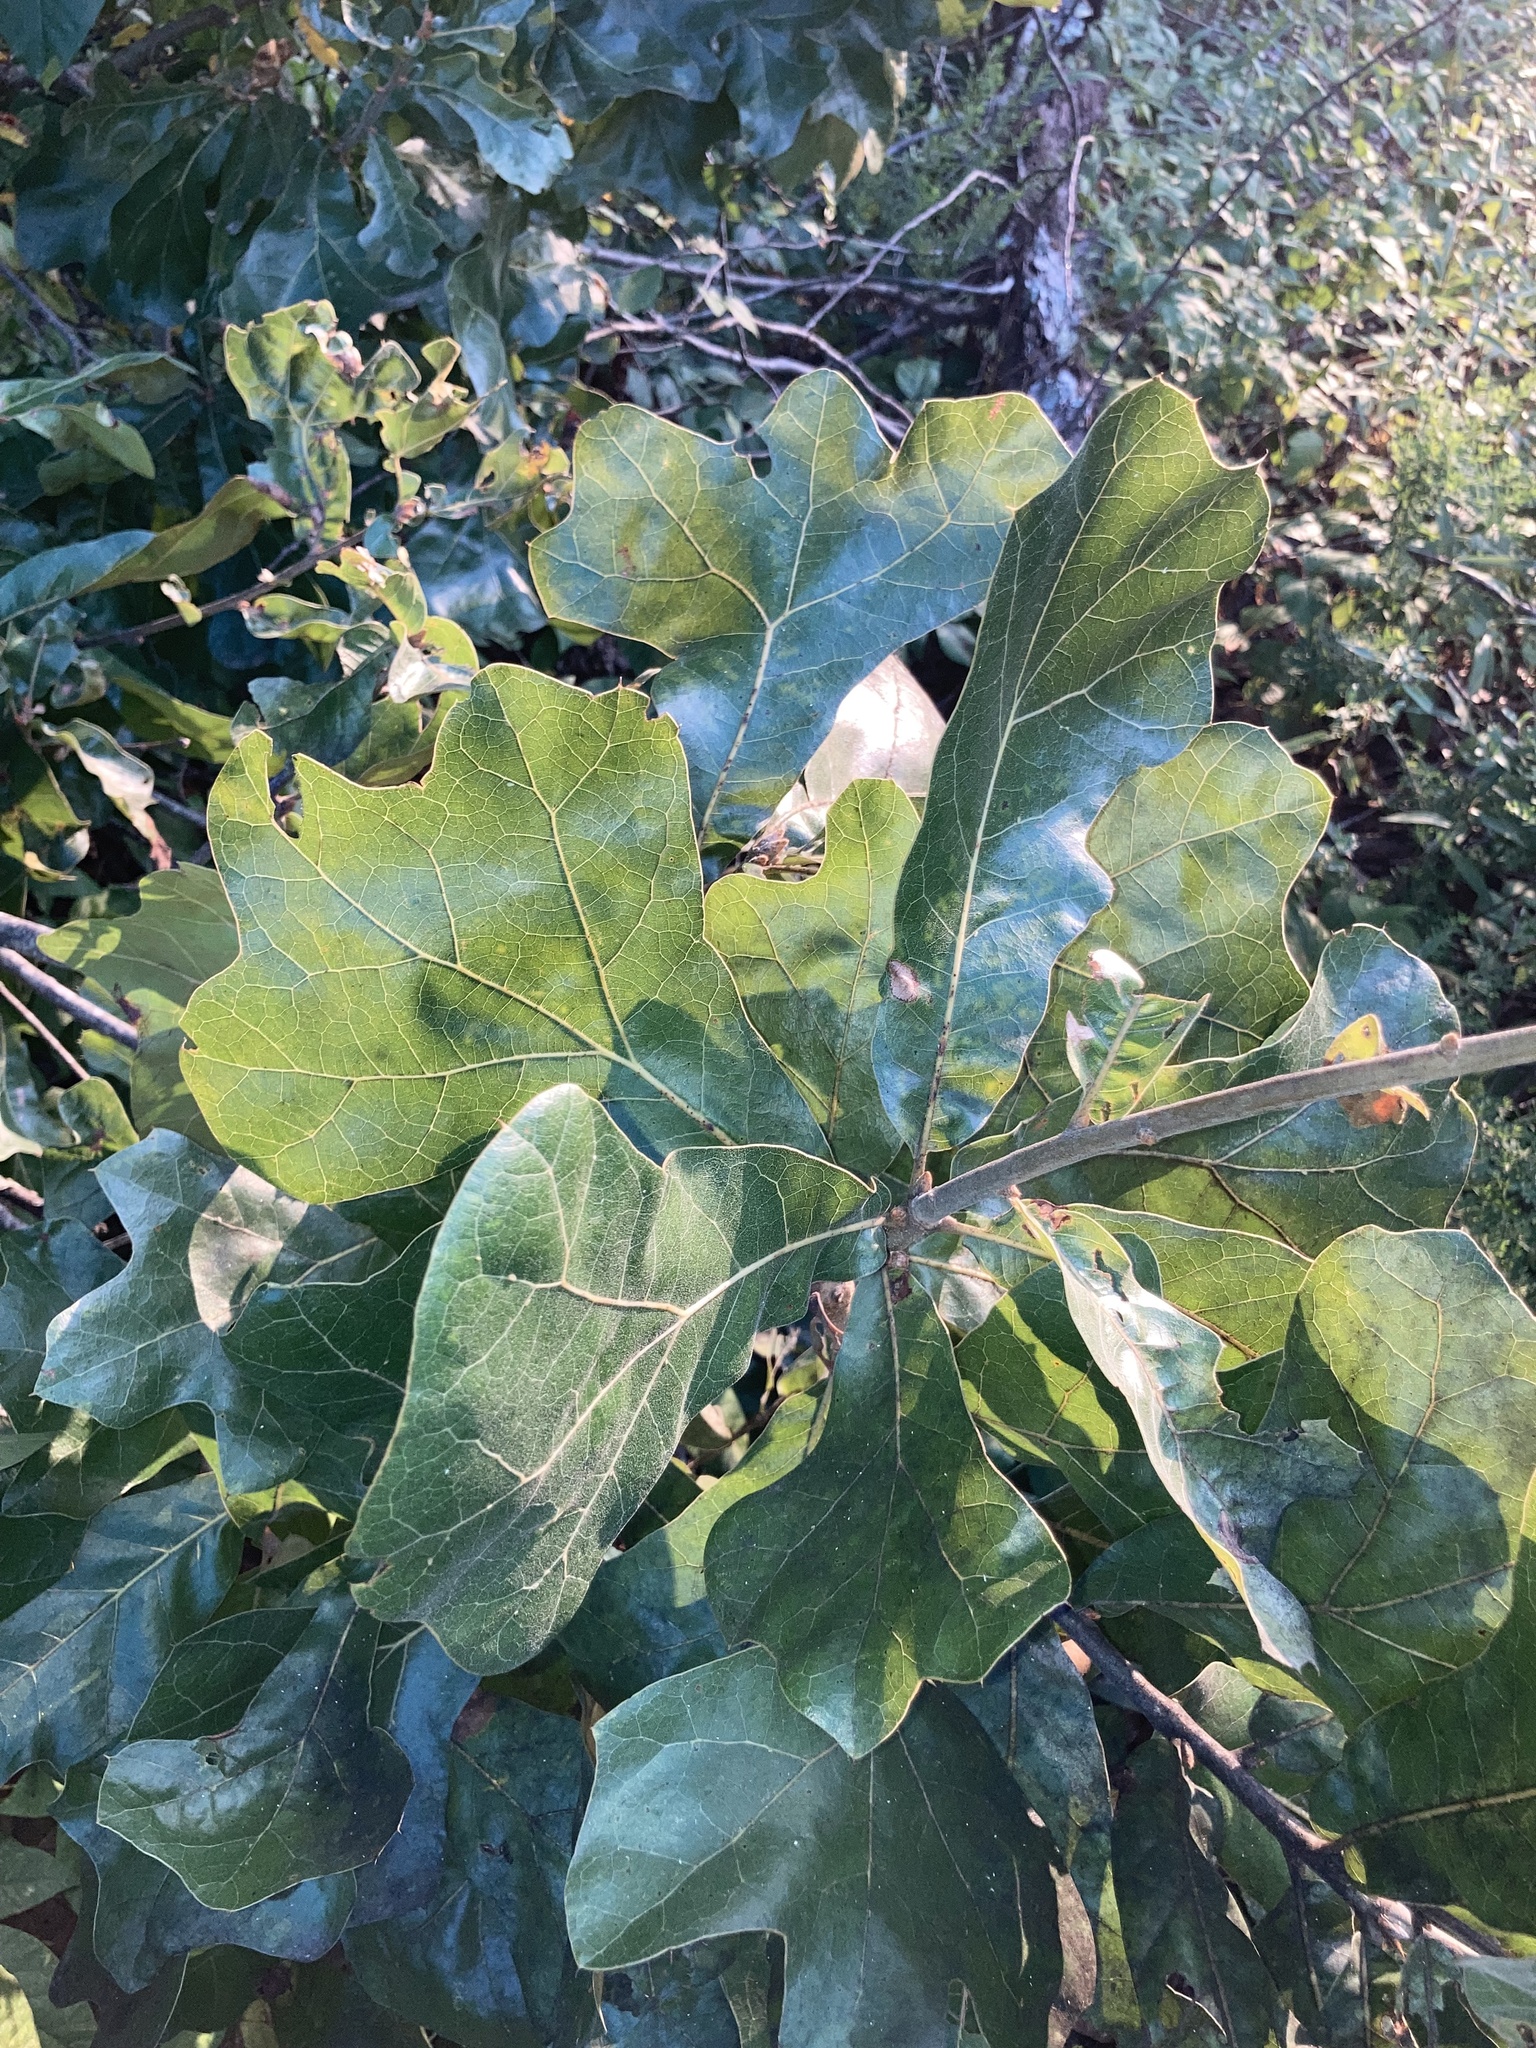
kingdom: Plantae
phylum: Tracheophyta
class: Magnoliopsida
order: Fagales
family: Fagaceae
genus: Quercus
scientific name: Quercus marilandica
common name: Blackjack oak
